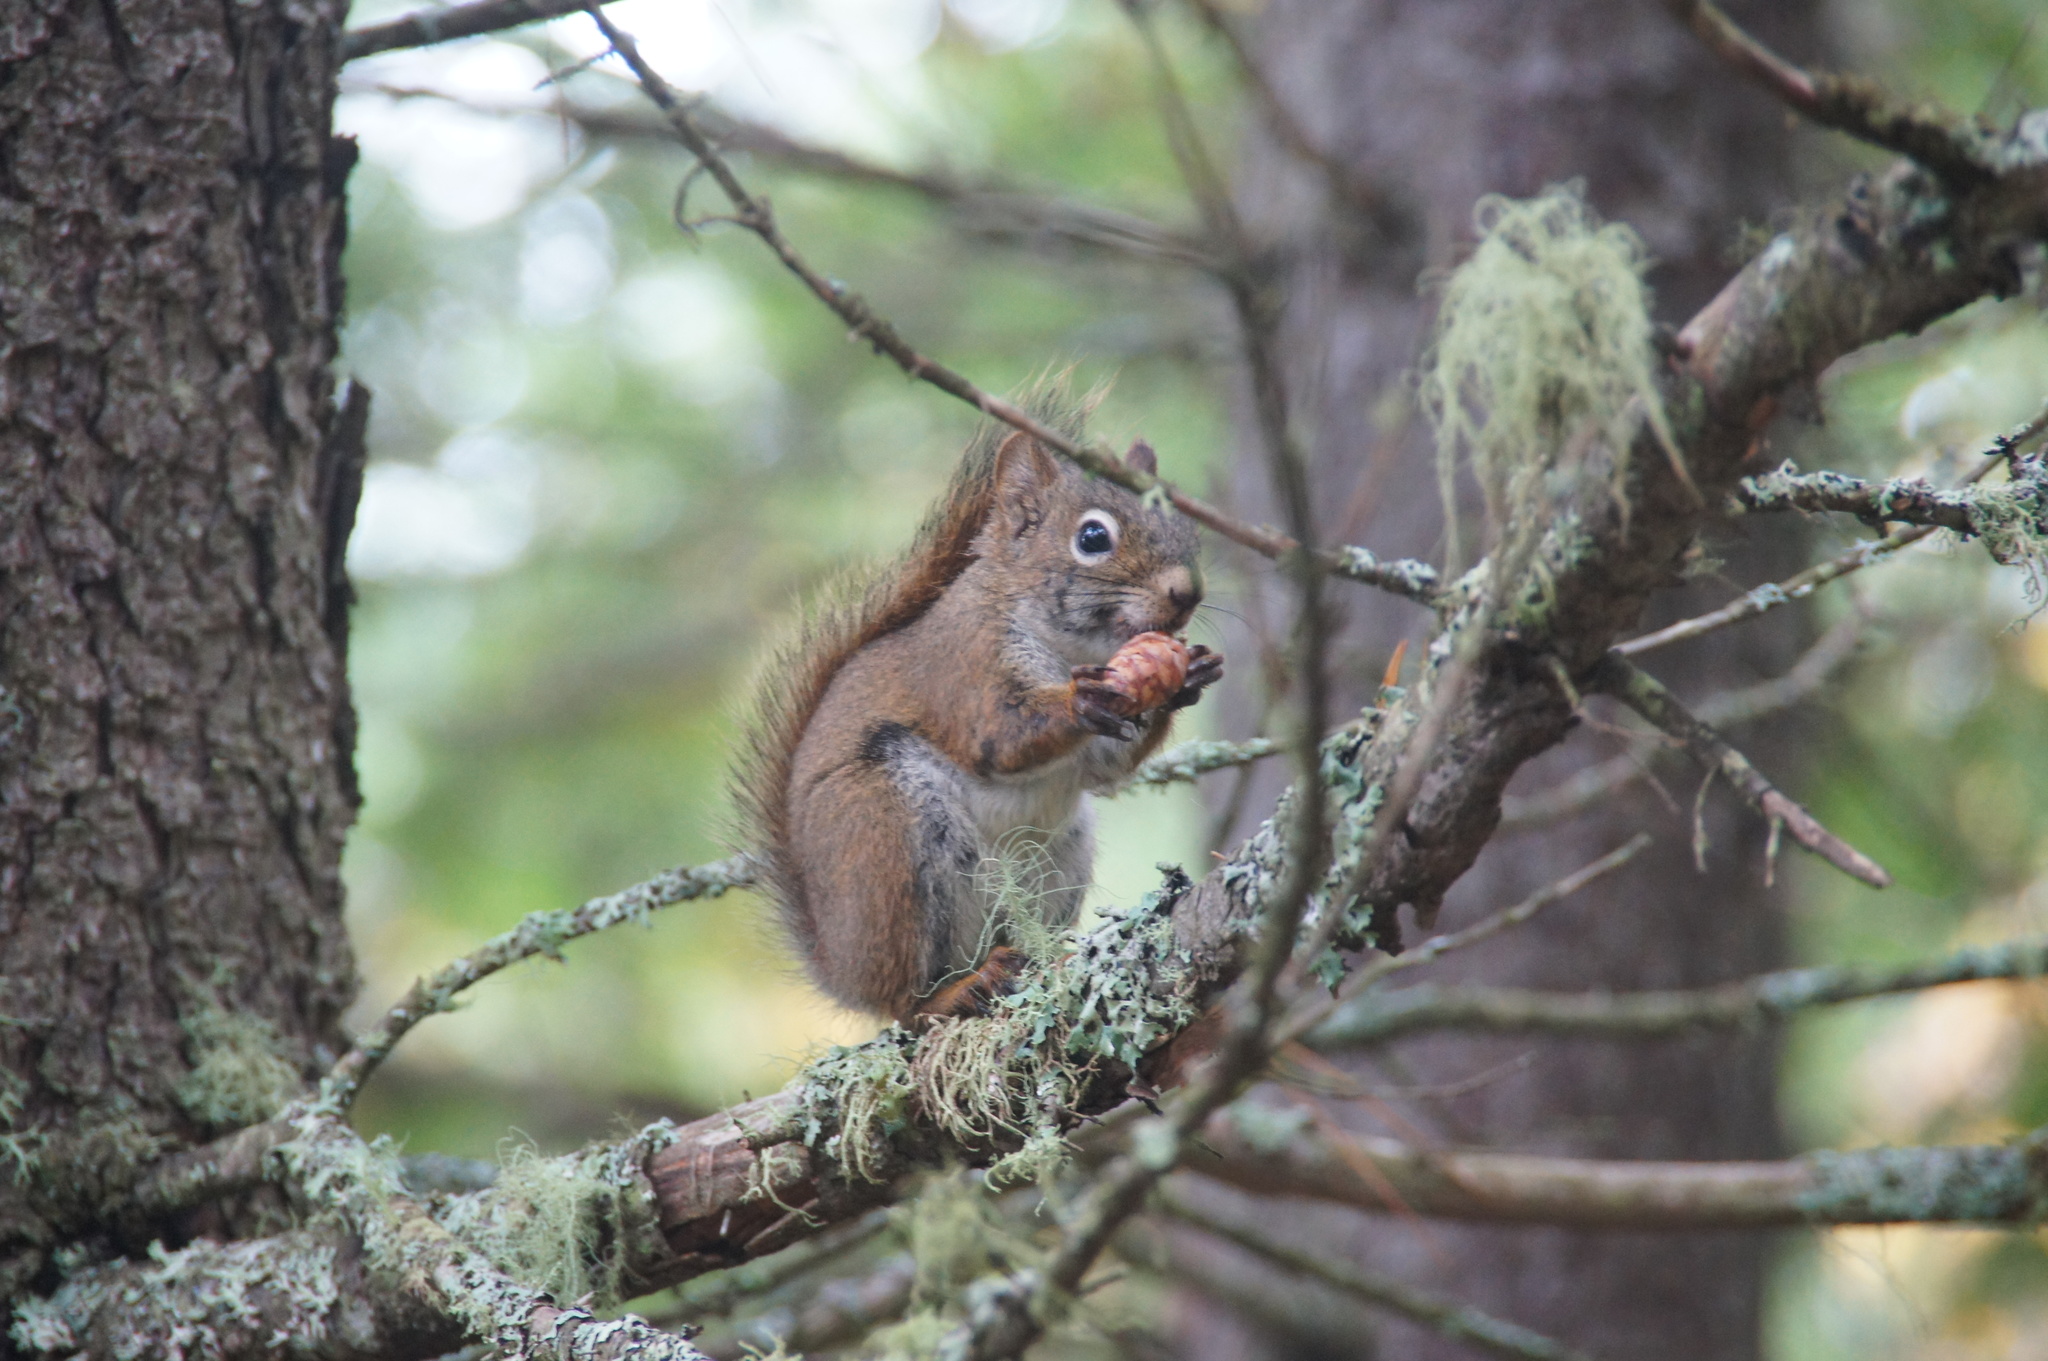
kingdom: Animalia
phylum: Chordata
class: Mammalia
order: Rodentia
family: Sciuridae
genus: Tamiasciurus
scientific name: Tamiasciurus hudsonicus
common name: Red squirrel
